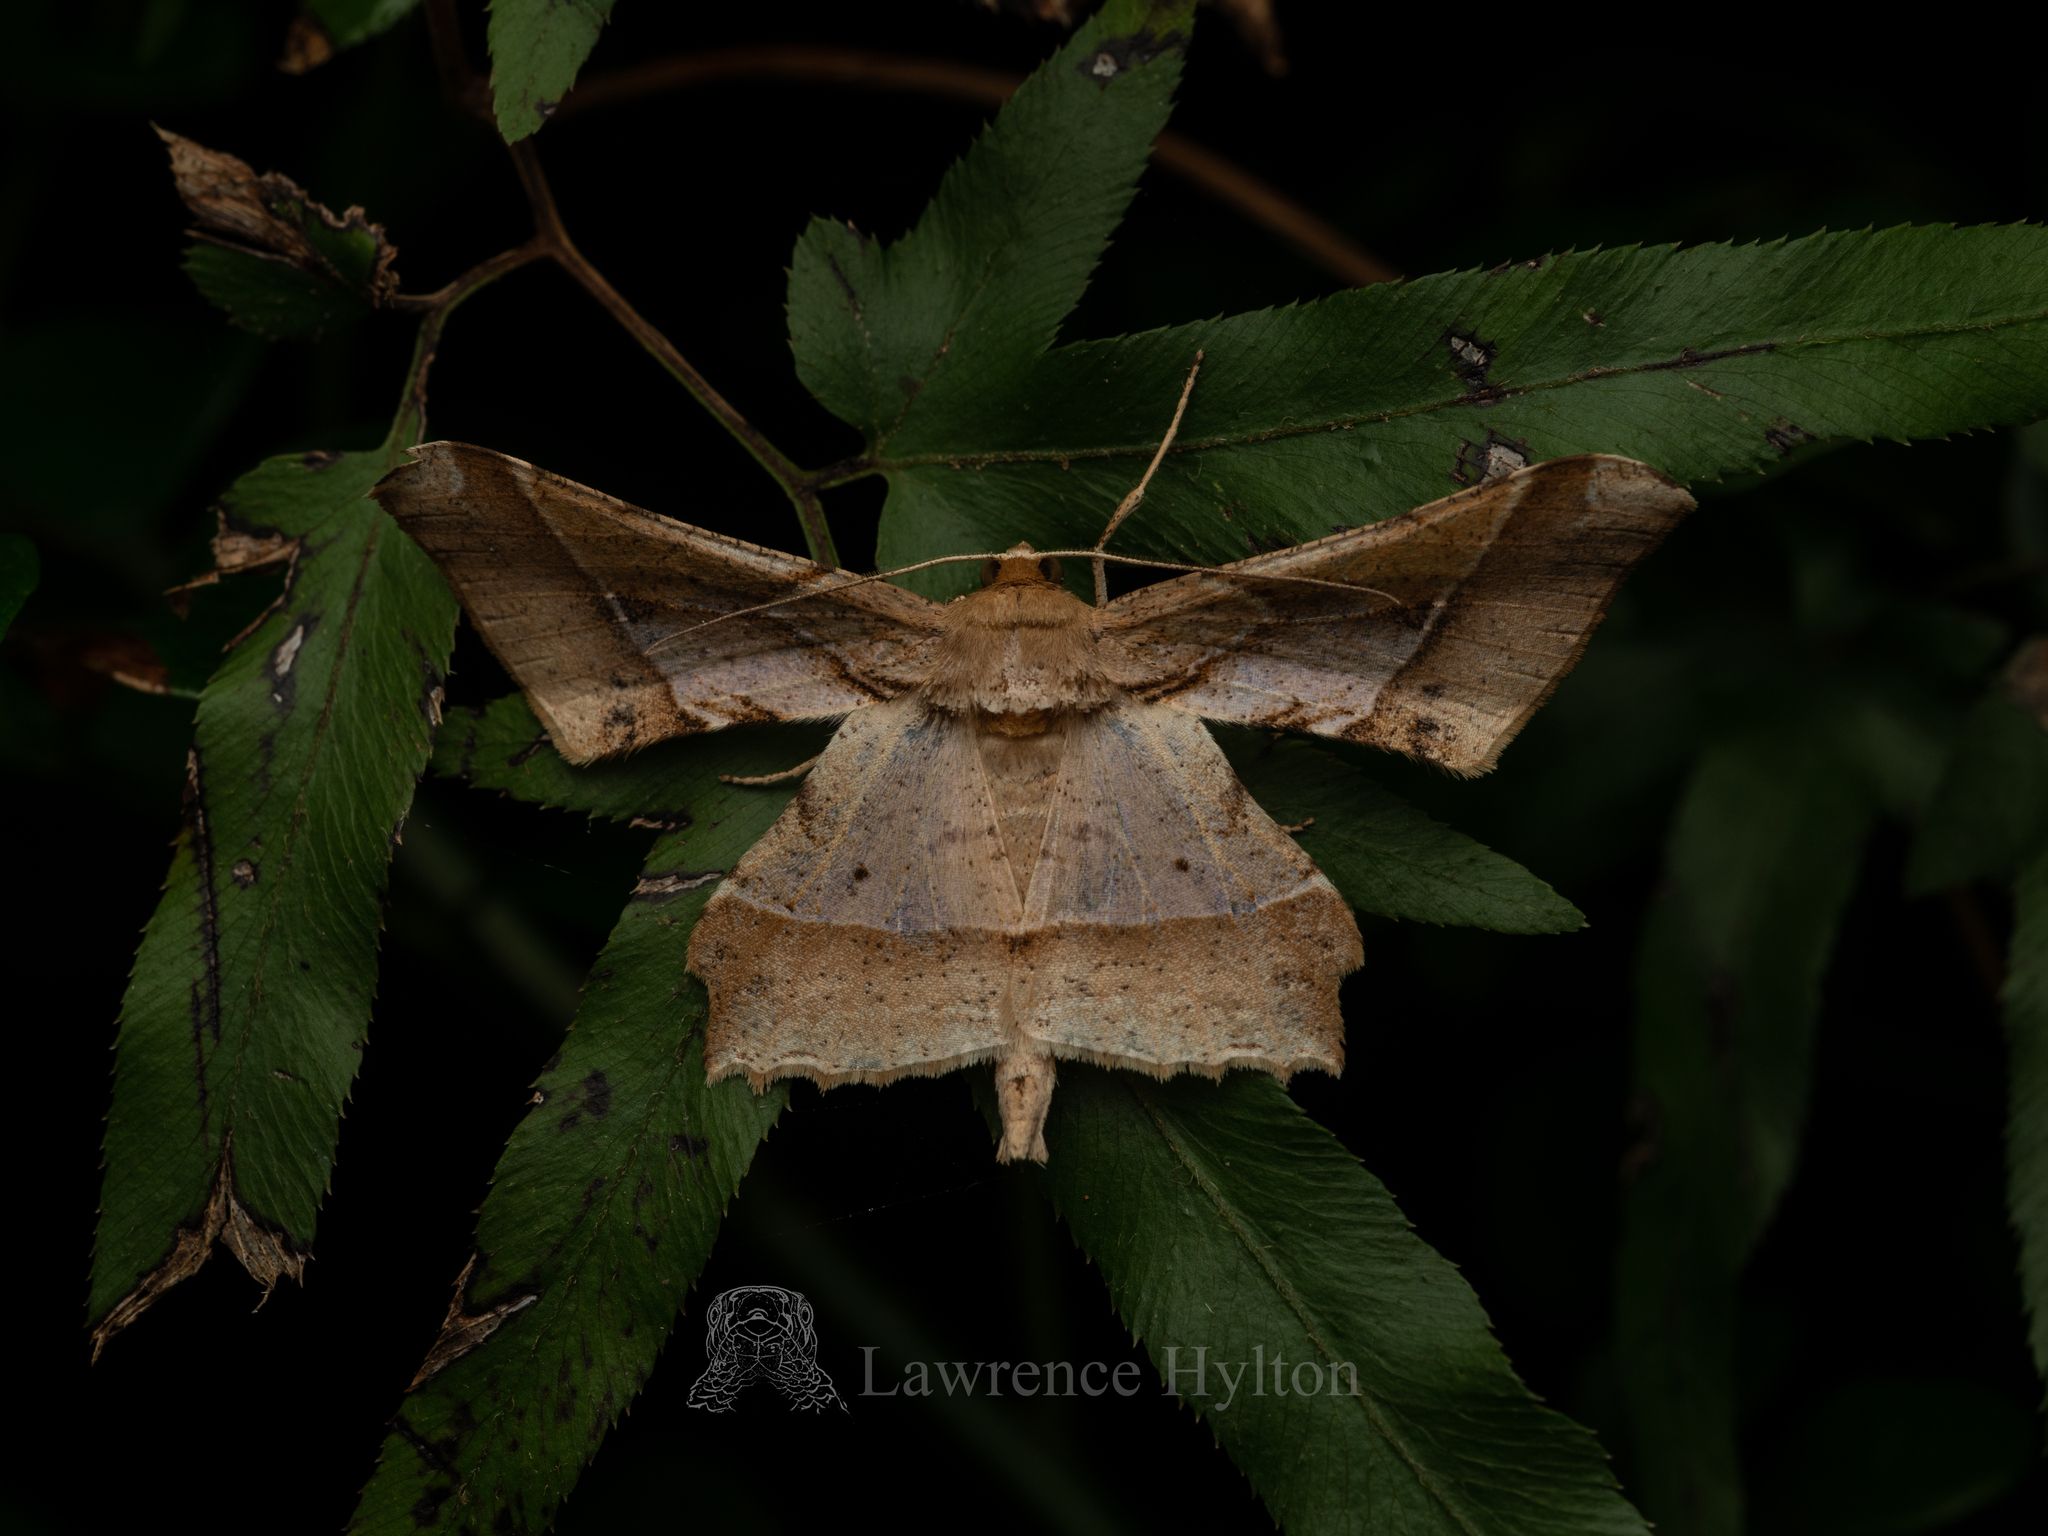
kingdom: Animalia
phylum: Arthropoda
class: Insecta
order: Lepidoptera
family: Geometridae
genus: Krananda
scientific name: Krananda latimarginaria
